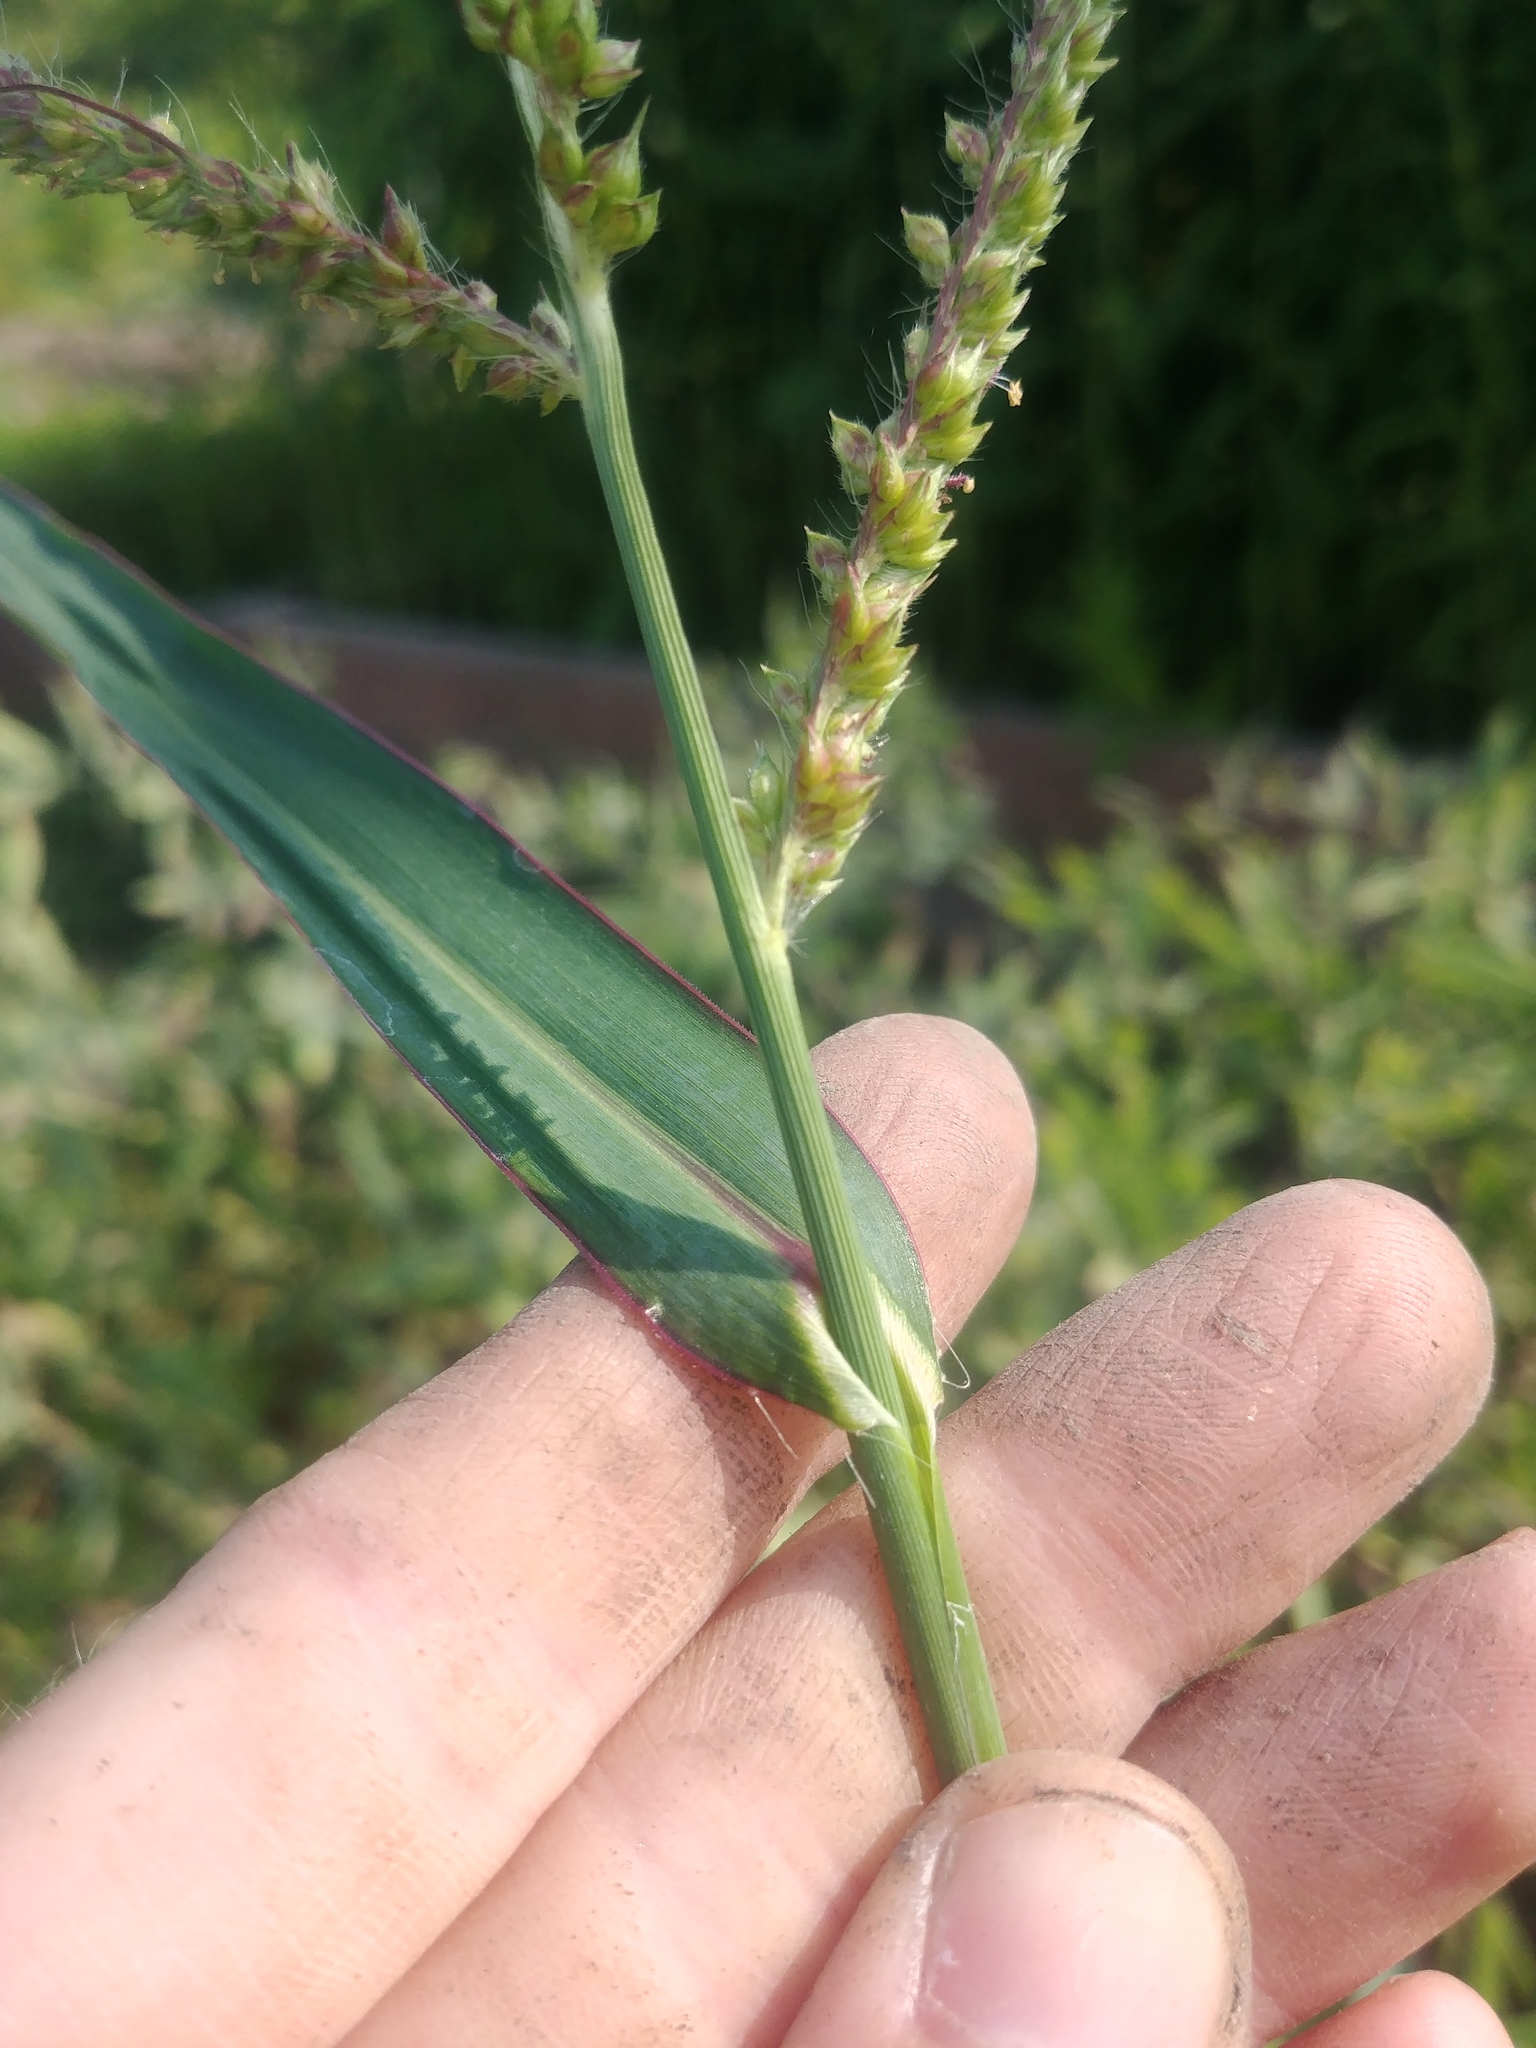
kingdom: Plantae
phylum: Tracheophyta
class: Liliopsida
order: Poales
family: Poaceae
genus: Echinochloa
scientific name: Echinochloa crus-galli
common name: Cockspur
